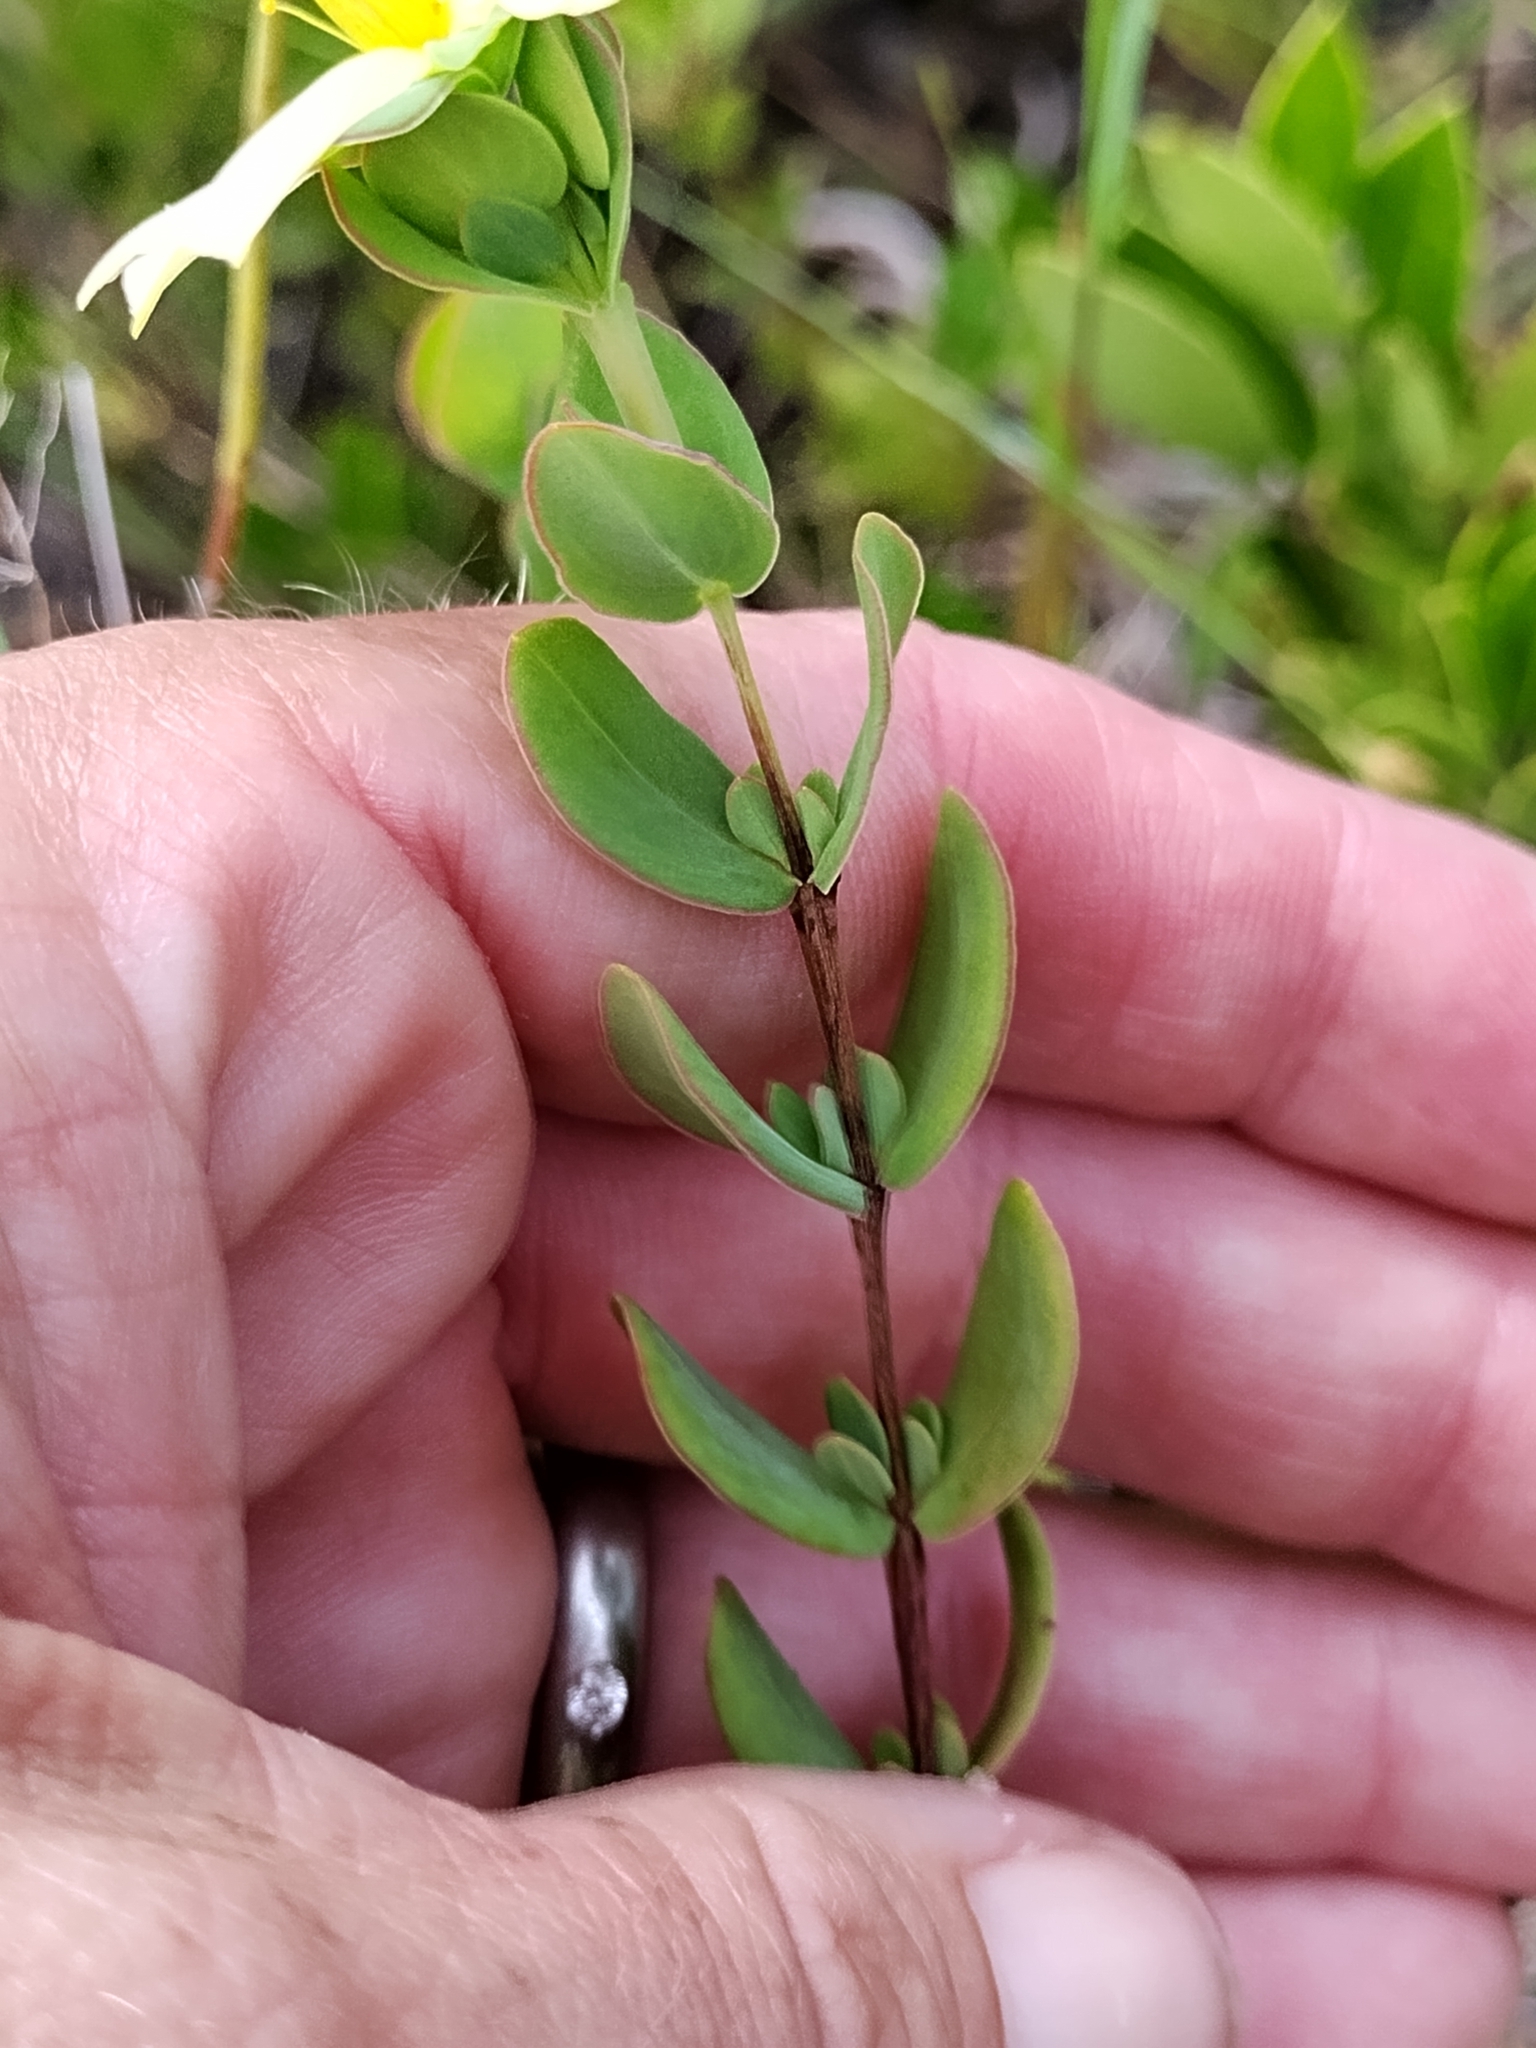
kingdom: Plantae
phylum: Tracheophyta
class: Magnoliopsida
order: Malpighiales
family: Hypericaceae
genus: Hypericum
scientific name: Hypericum crux-andreae
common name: St.-peter's-wort
